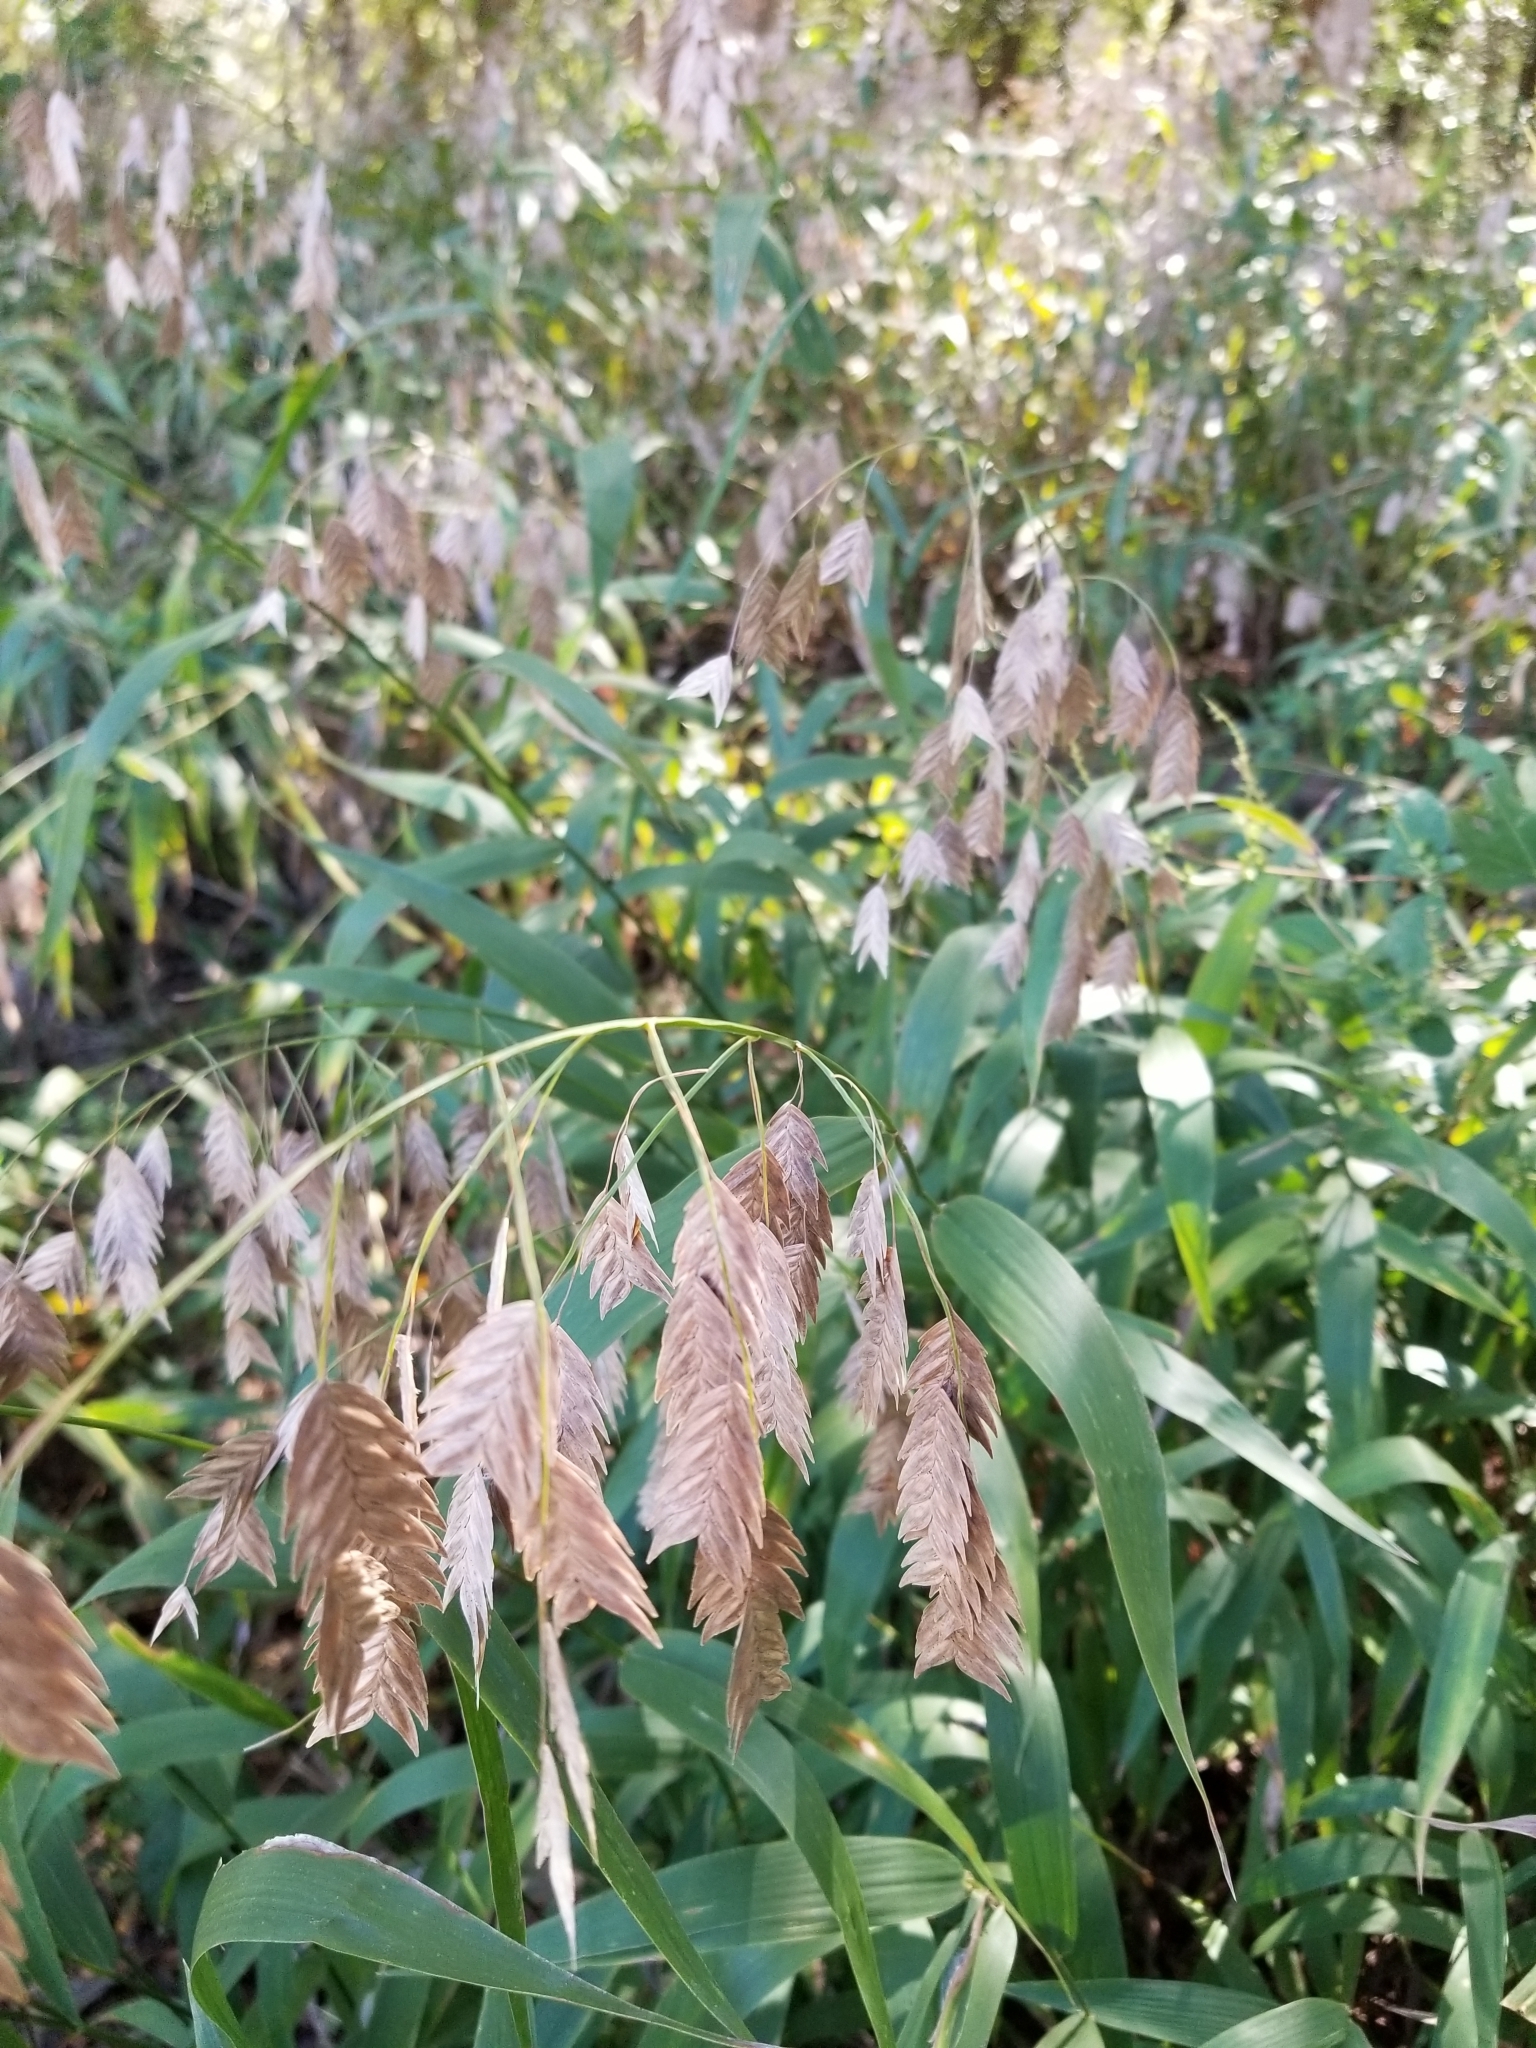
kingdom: Plantae
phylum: Tracheophyta
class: Liliopsida
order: Poales
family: Poaceae
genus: Chasmanthium
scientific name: Chasmanthium latifolium
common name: Broad-leaved chasmanthium
